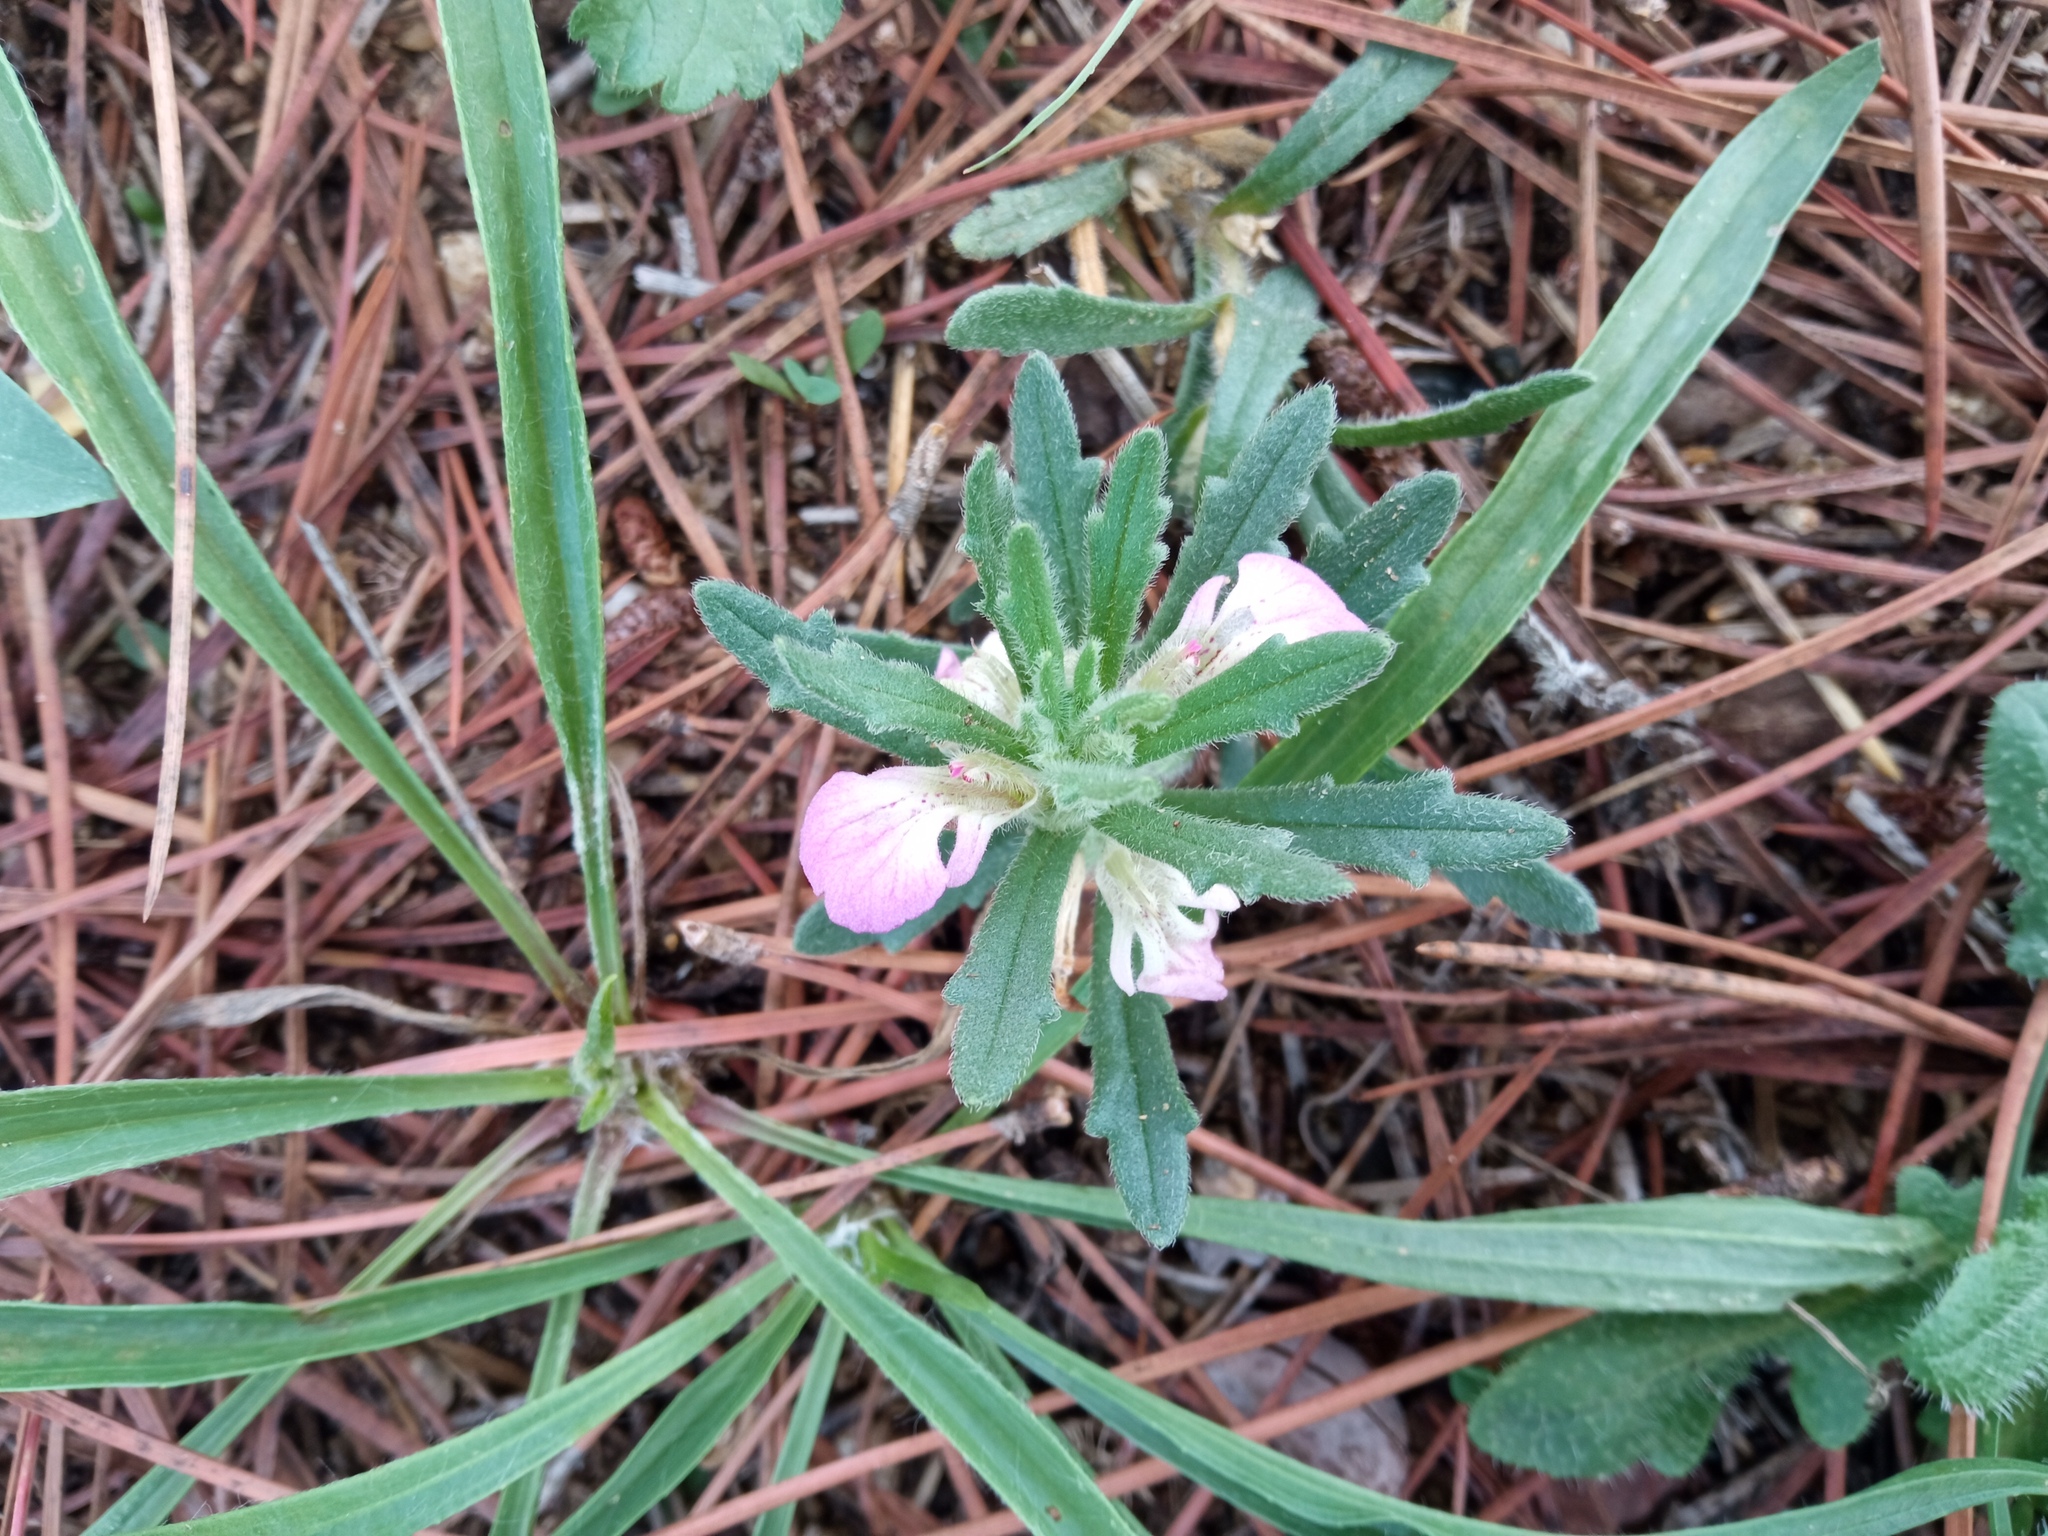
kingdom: Plantae
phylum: Tracheophyta
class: Magnoliopsida
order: Lamiales
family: Lamiaceae
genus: Ajuga
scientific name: Ajuga iva
